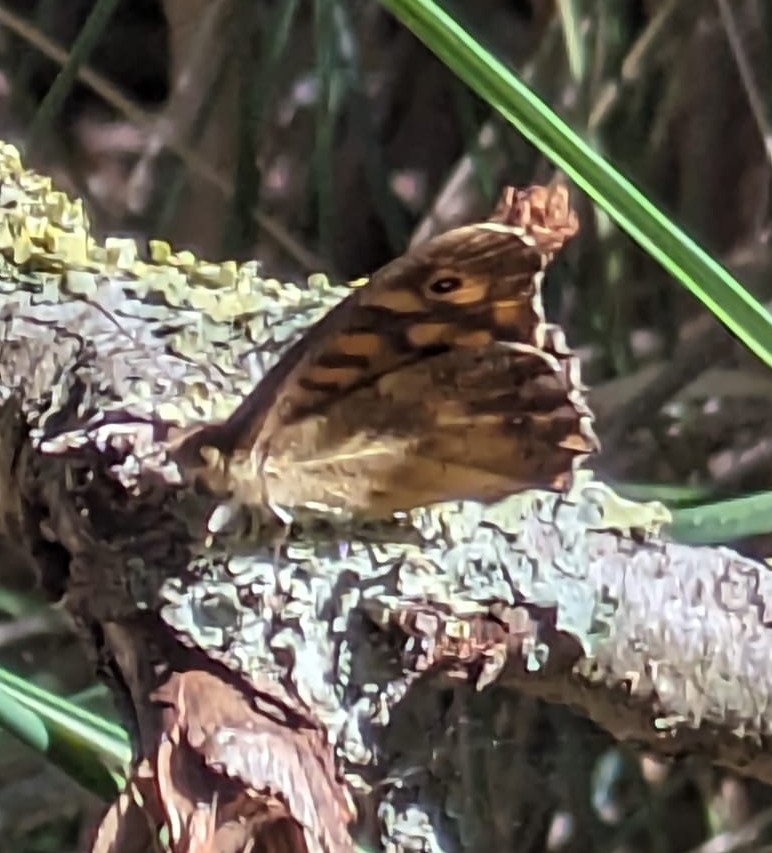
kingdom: Animalia
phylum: Arthropoda
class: Insecta
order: Lepidoptera
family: Nymphalidae
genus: Pararge
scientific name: Pararge aegeria
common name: Speckled wood
